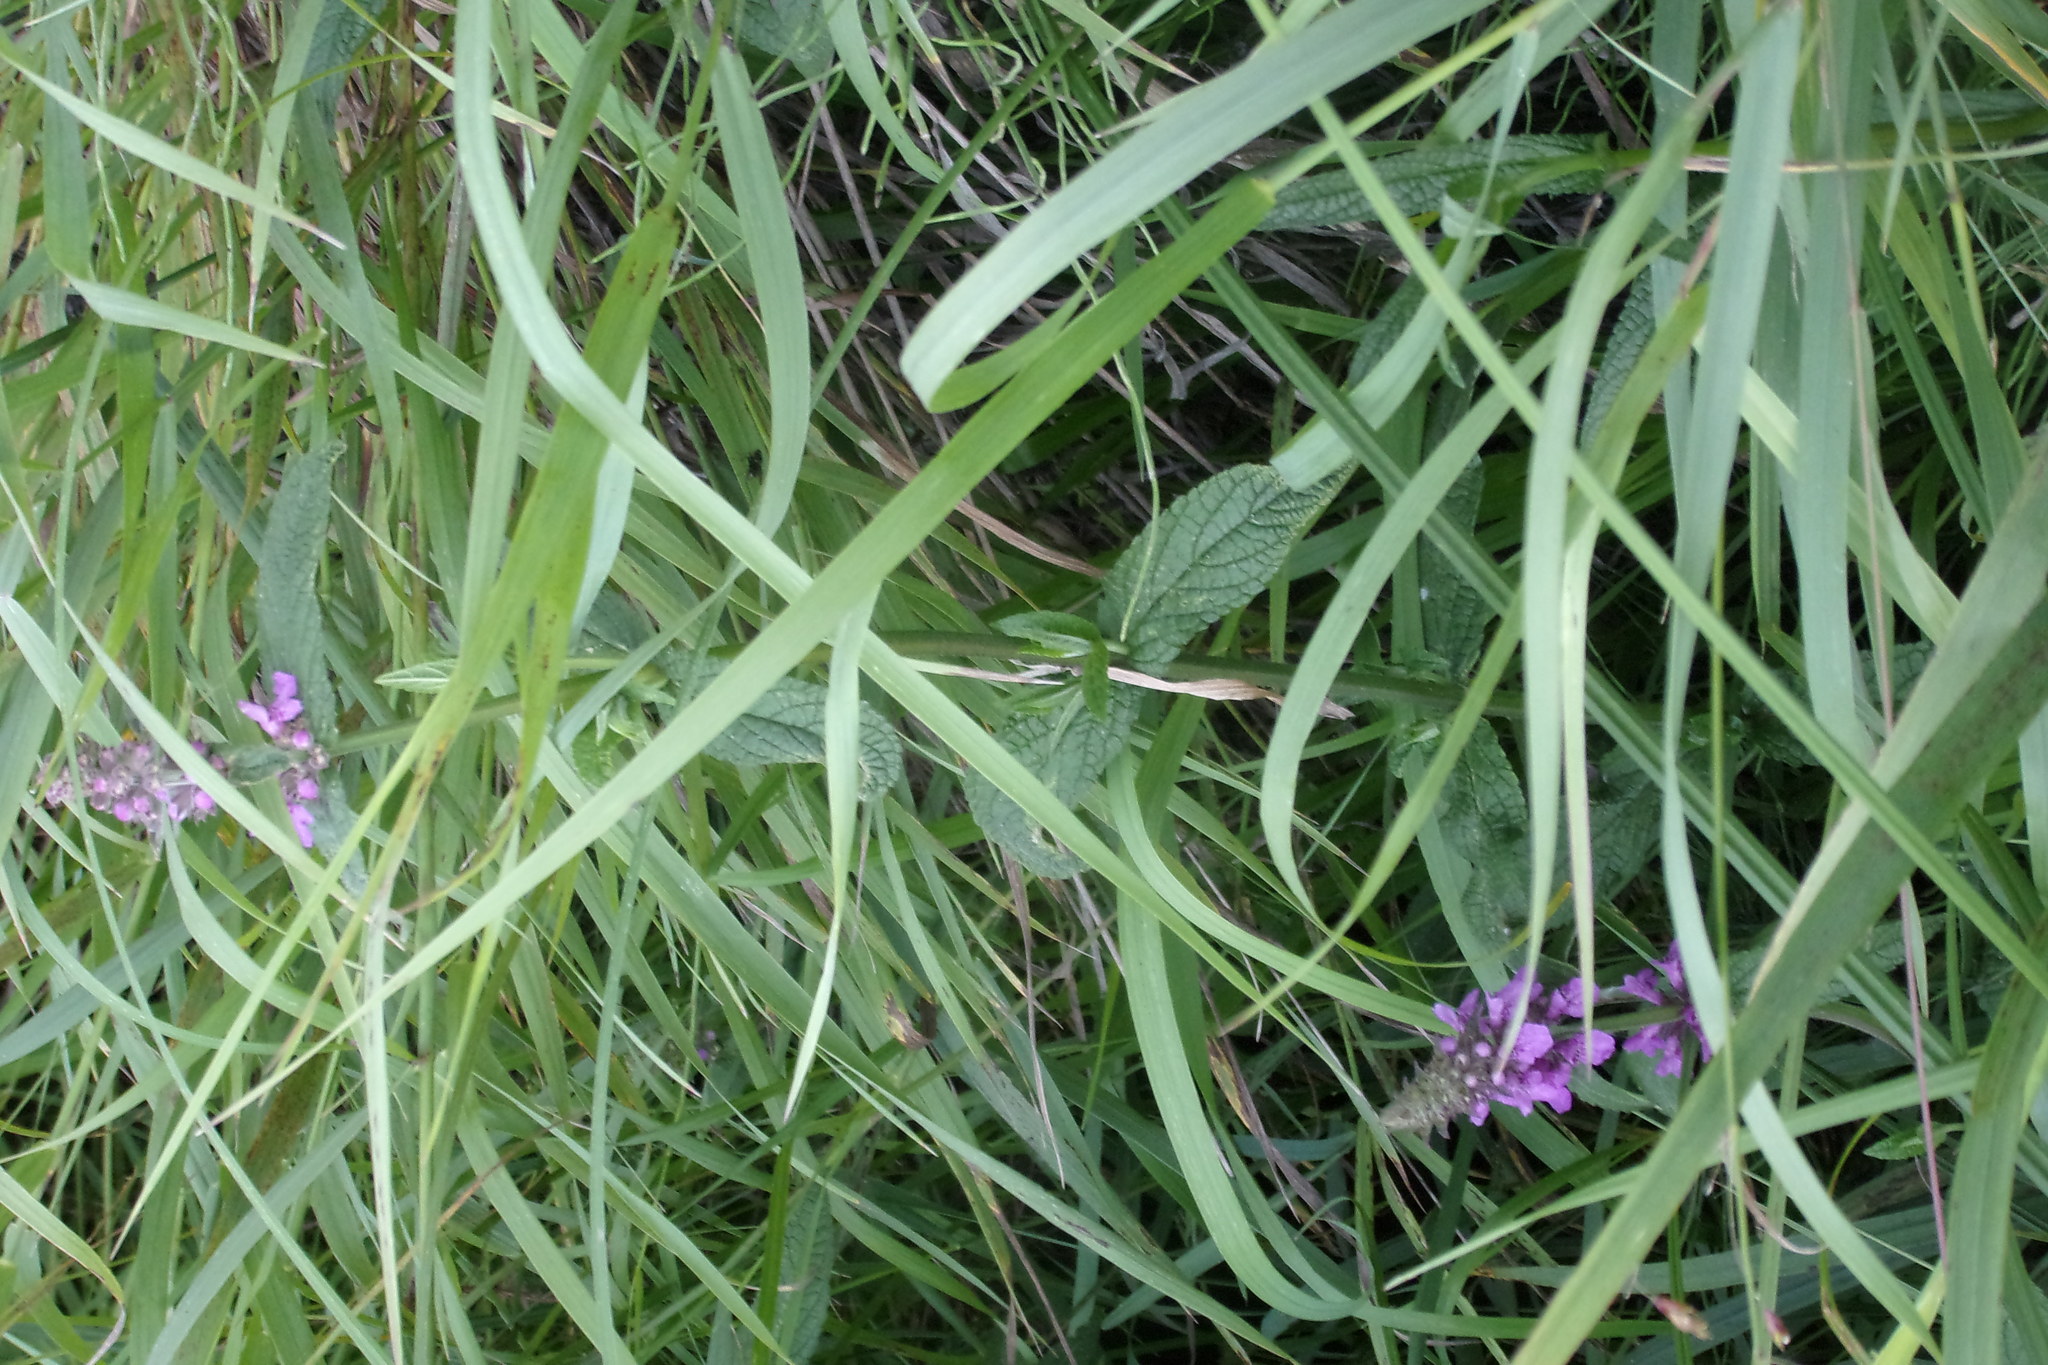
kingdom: Plantae
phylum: Tracheophyta
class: Magnoliopsida
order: Lamiales
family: Lamiaceae
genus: Stachys
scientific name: Stachys palustris
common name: Marsh woundwort
